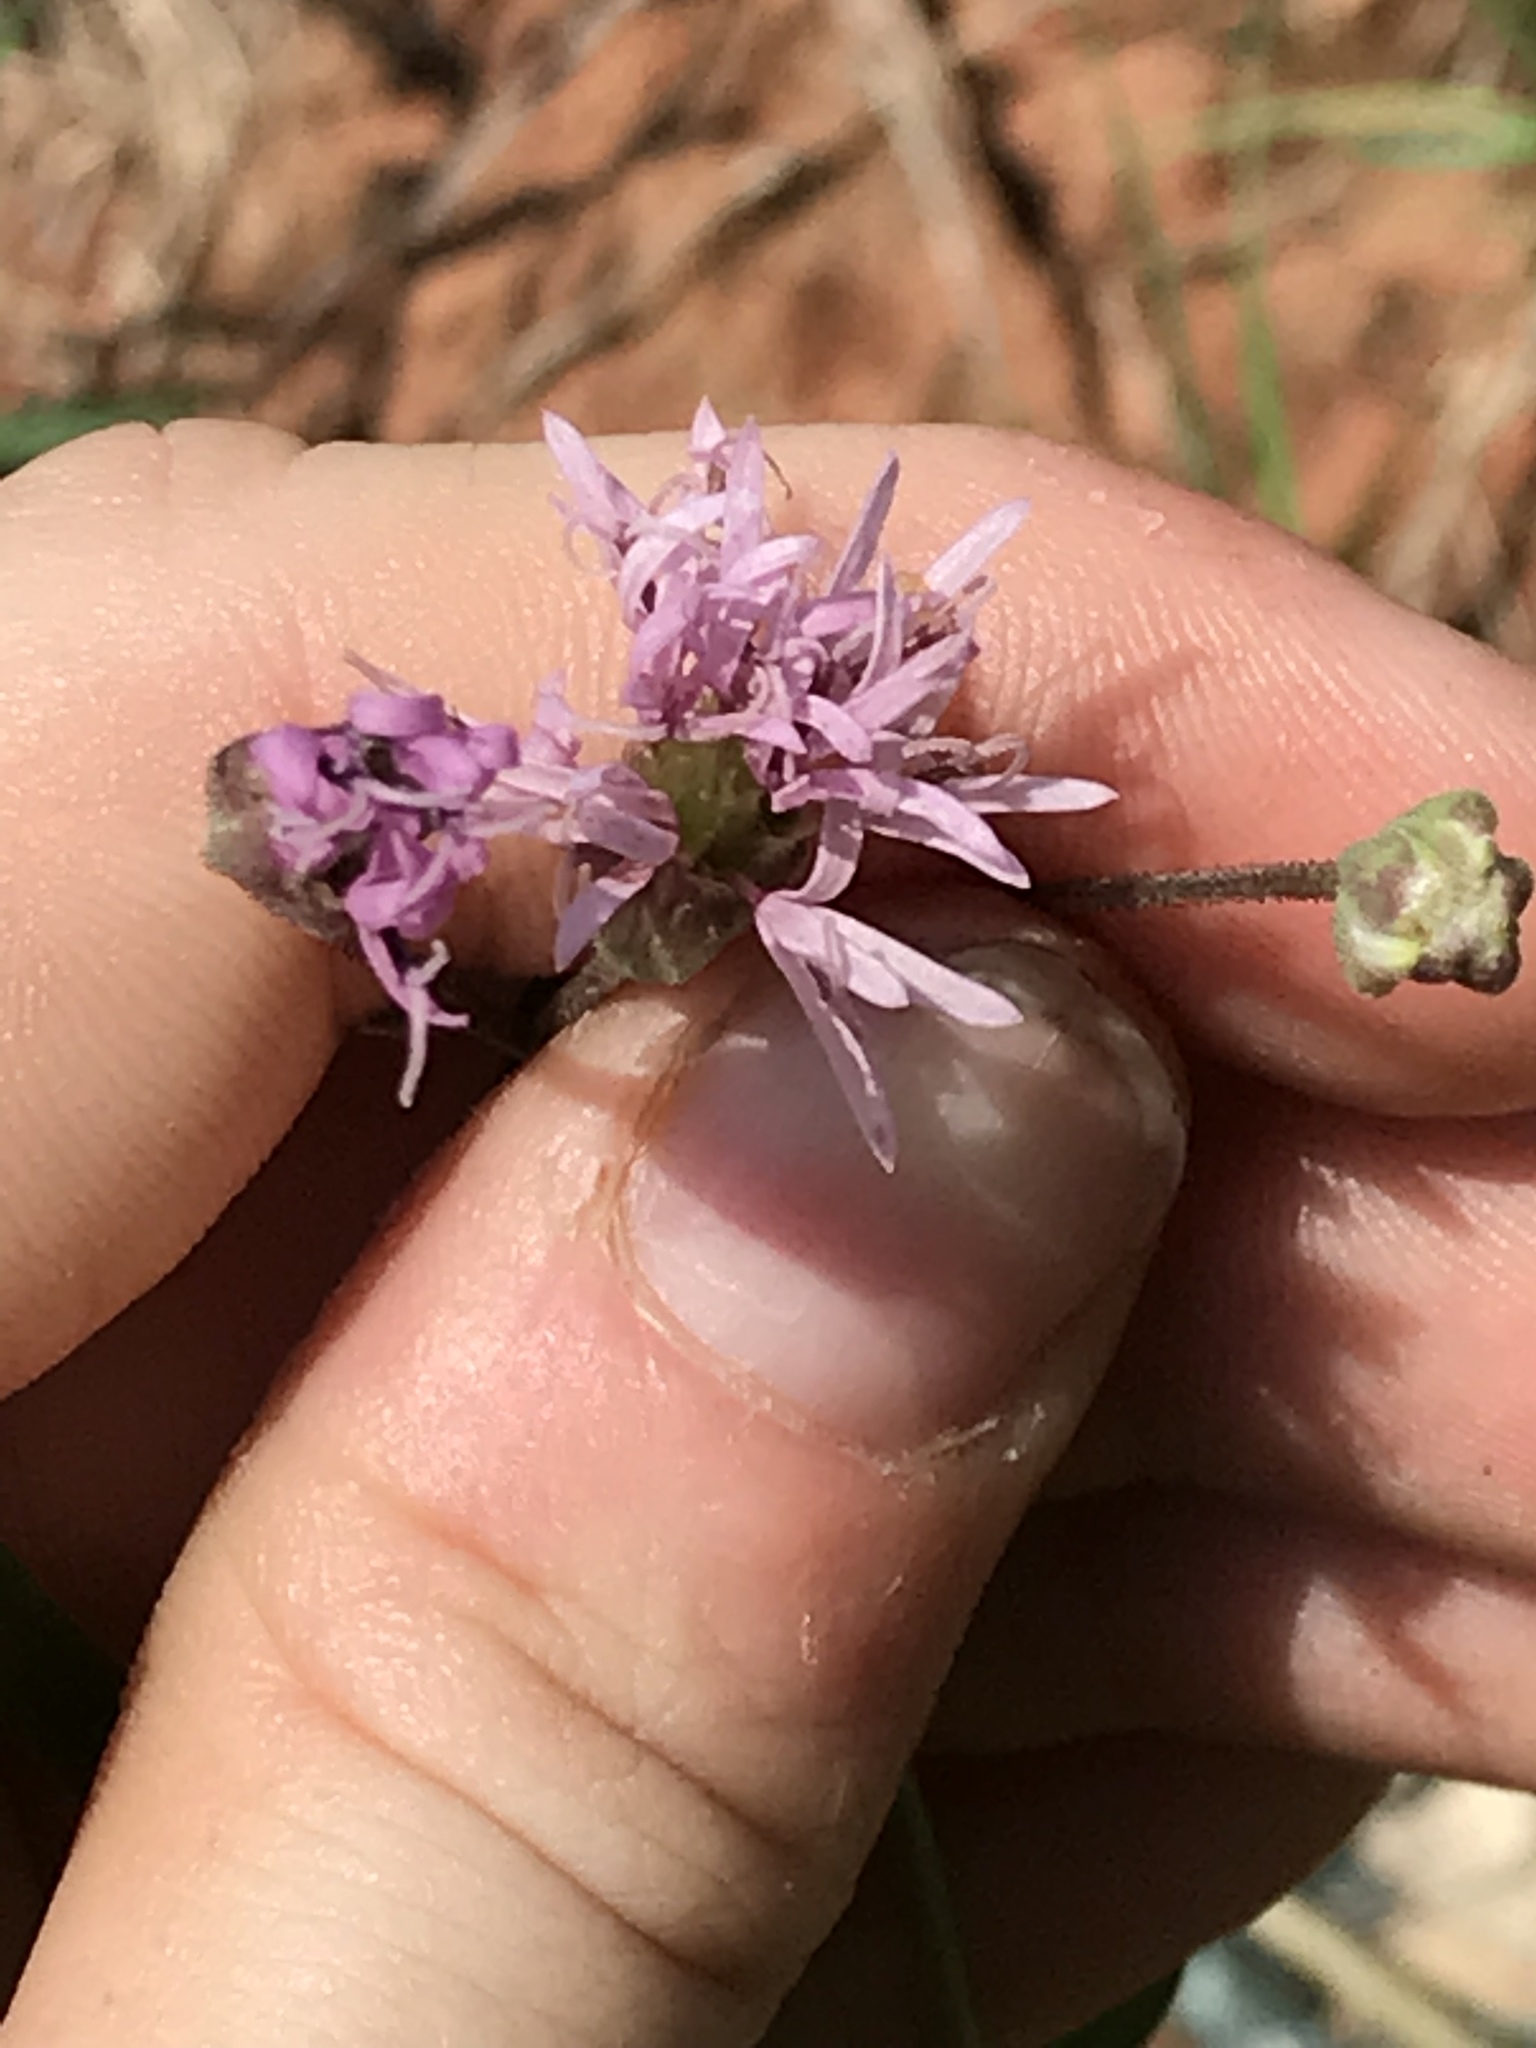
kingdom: Plantae
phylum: Tracheophyta
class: Magnoliopsida
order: Asterales
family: Asteraceae
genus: Palafoxia
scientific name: Palafoxia callosa
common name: Small palafox
